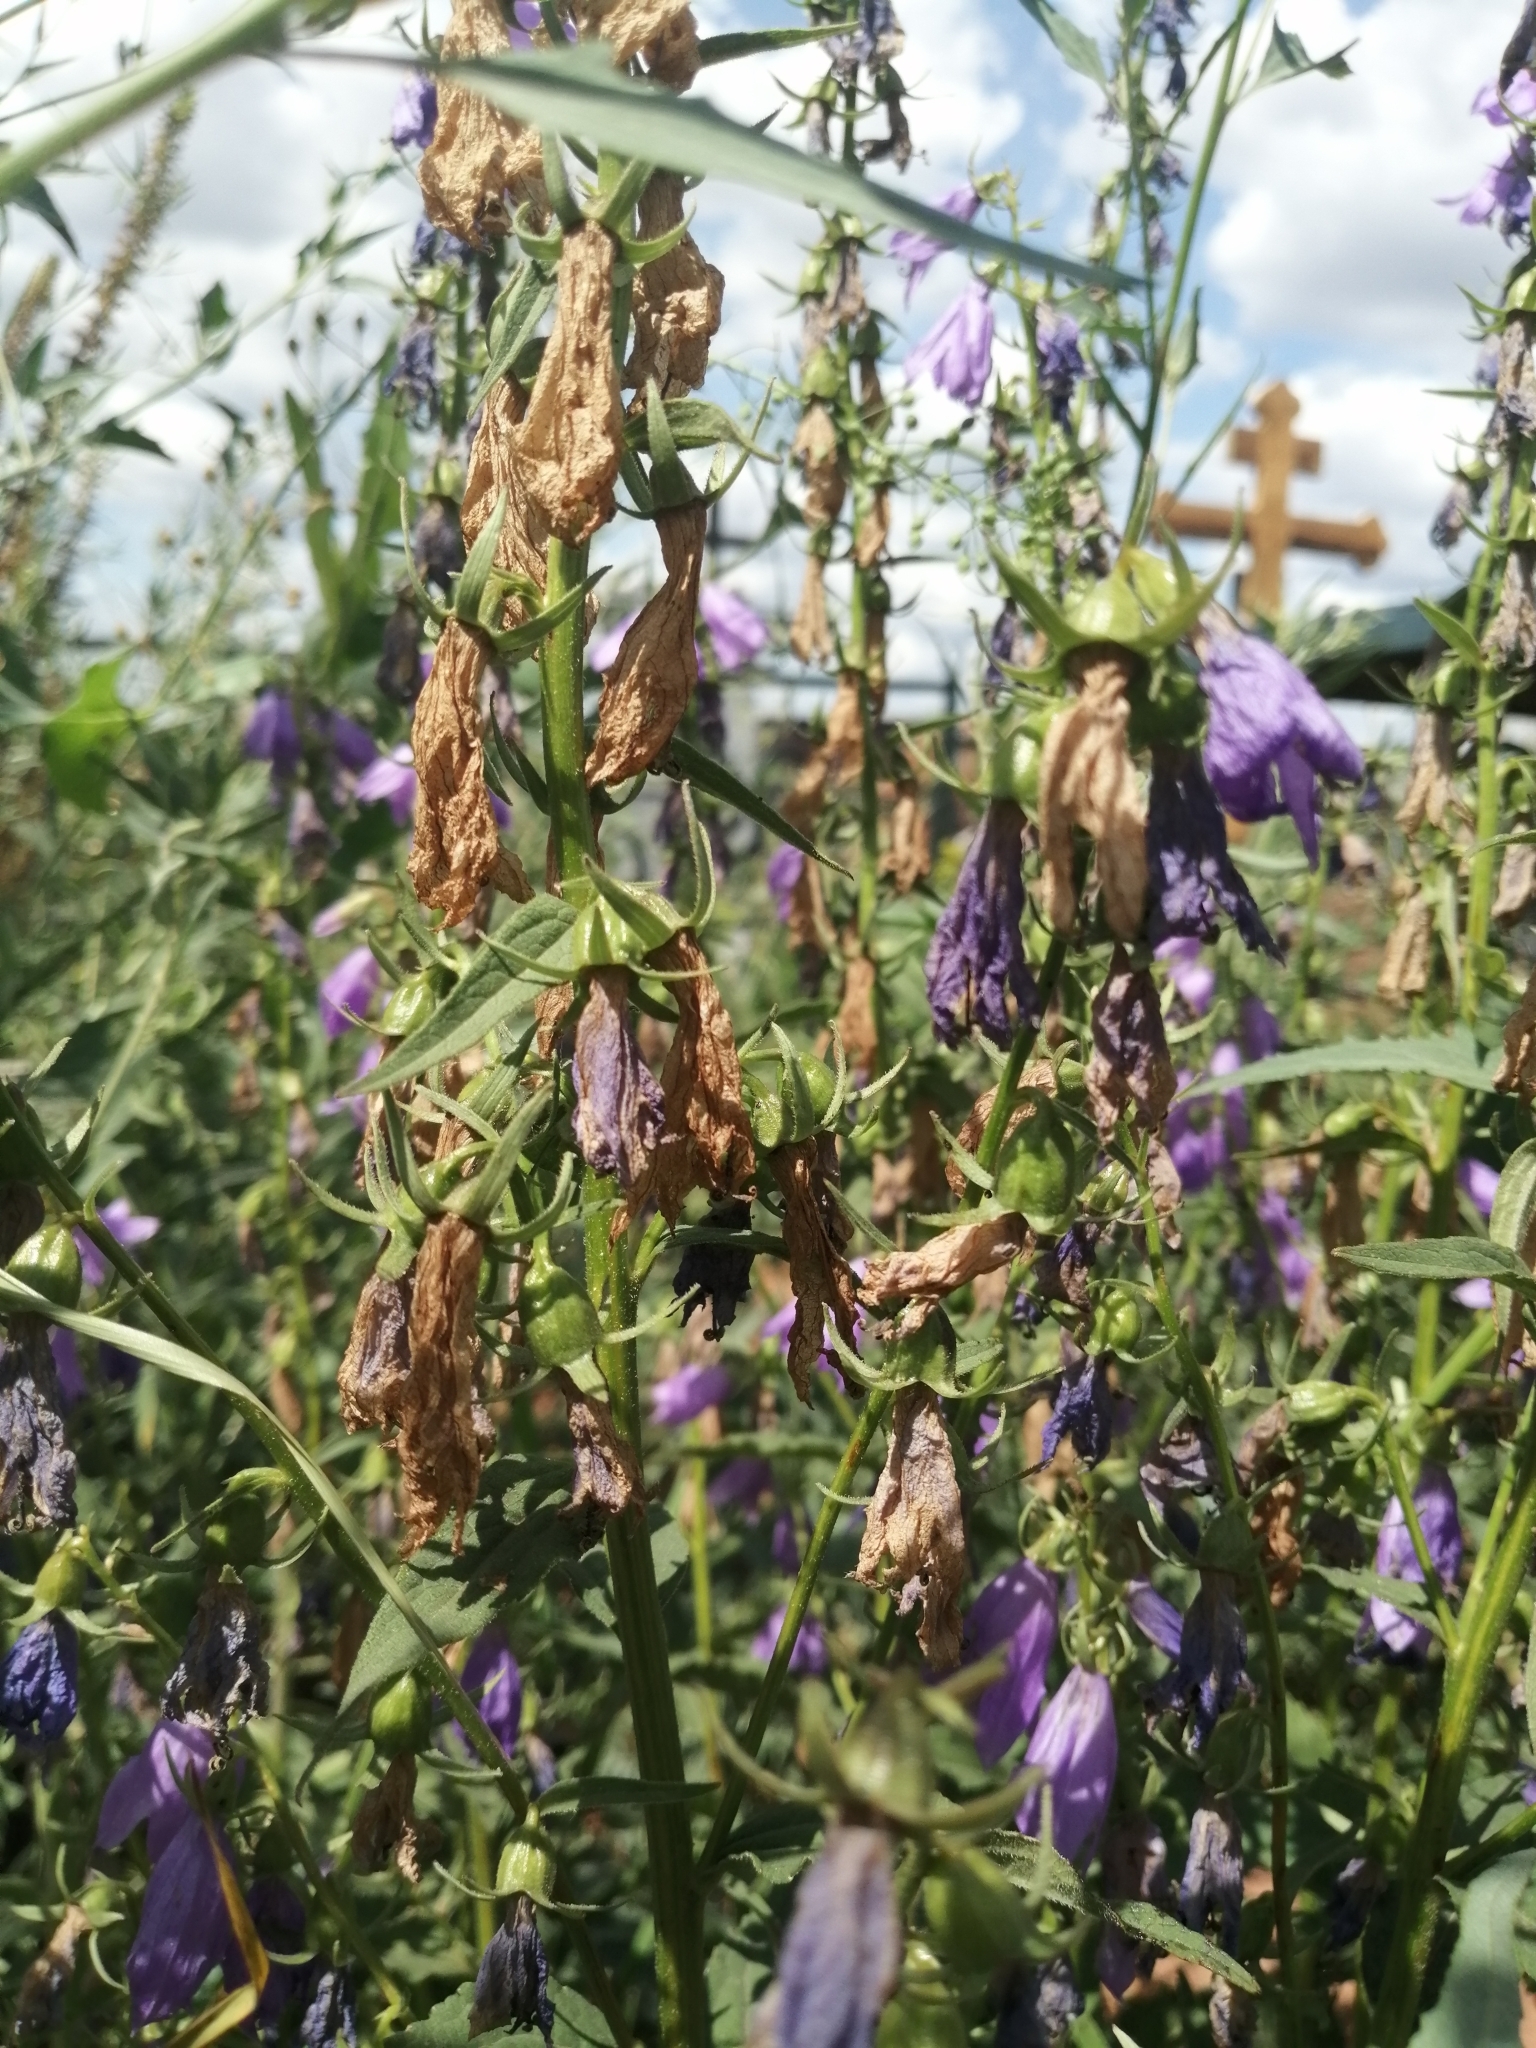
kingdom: Plantae
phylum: Tracheophyta
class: Magnoliopsida
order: Asterales
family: Campanulaceae
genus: Campanula
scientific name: Campanula rapunculoides
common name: Creeping bellflower
